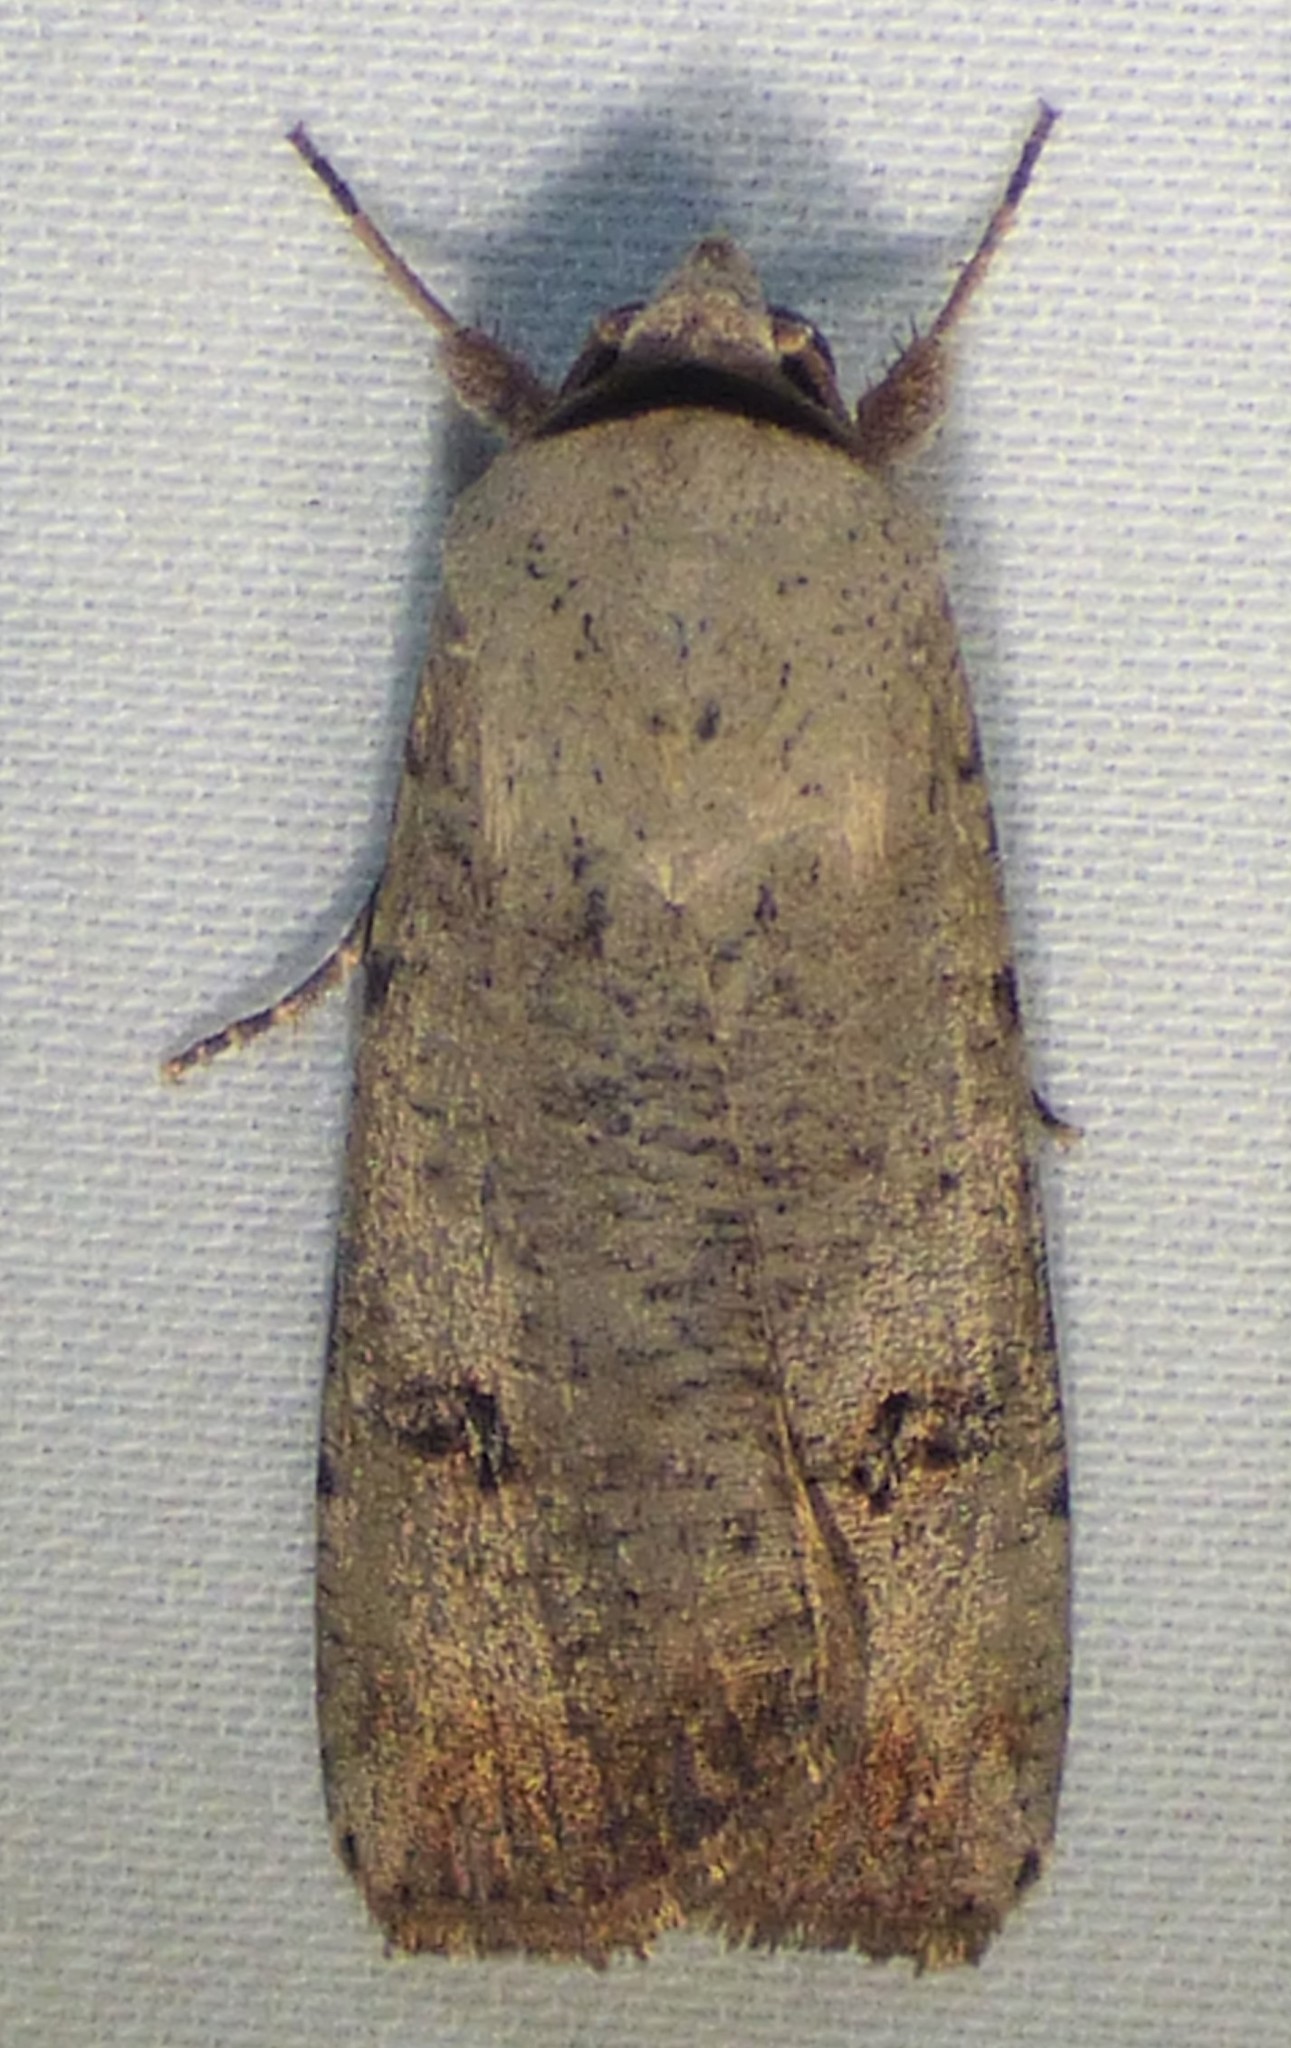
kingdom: Animalia
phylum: Arthropoda
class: Insecta
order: Lepidoptera
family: Noctuidae
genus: Anicla
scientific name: Anicla infecta
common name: Green cutworm
